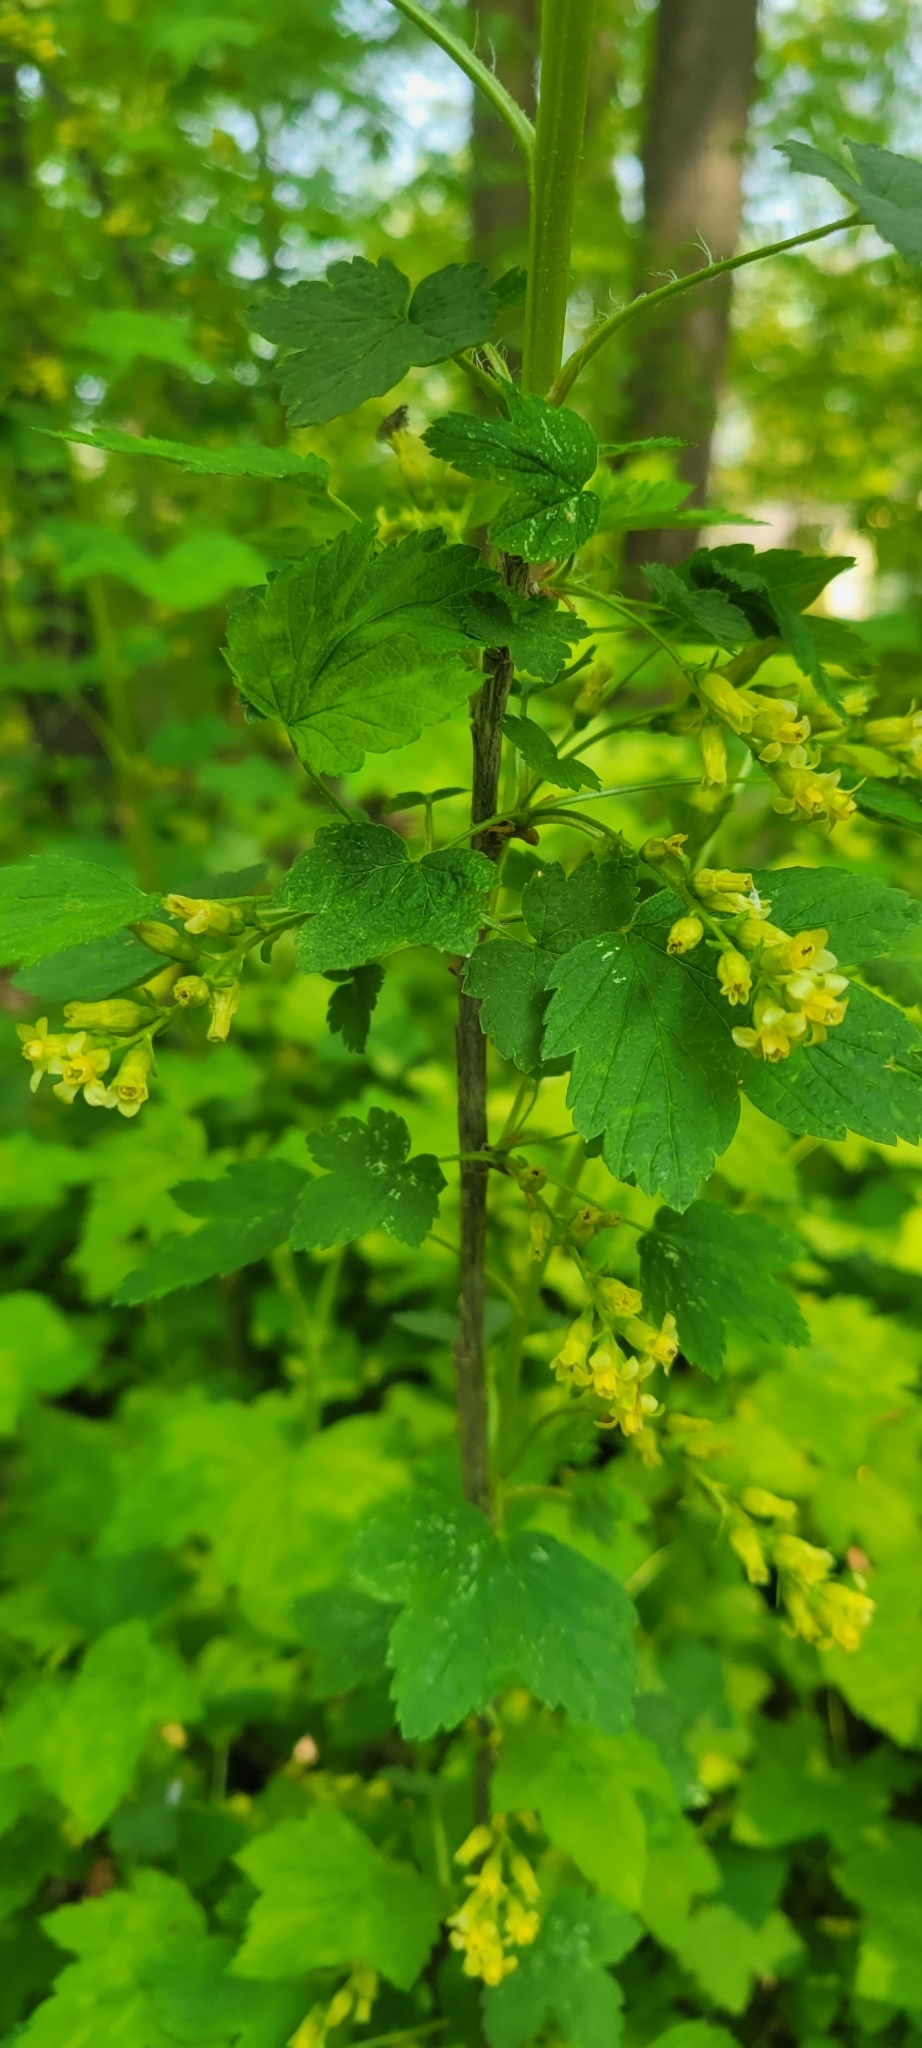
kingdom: Plantae
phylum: Tracheophyta
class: Magnoliopsida
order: Saxifragales
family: Grossulariaceae
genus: Ribes
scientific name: Ribes americanum
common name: American black currant
